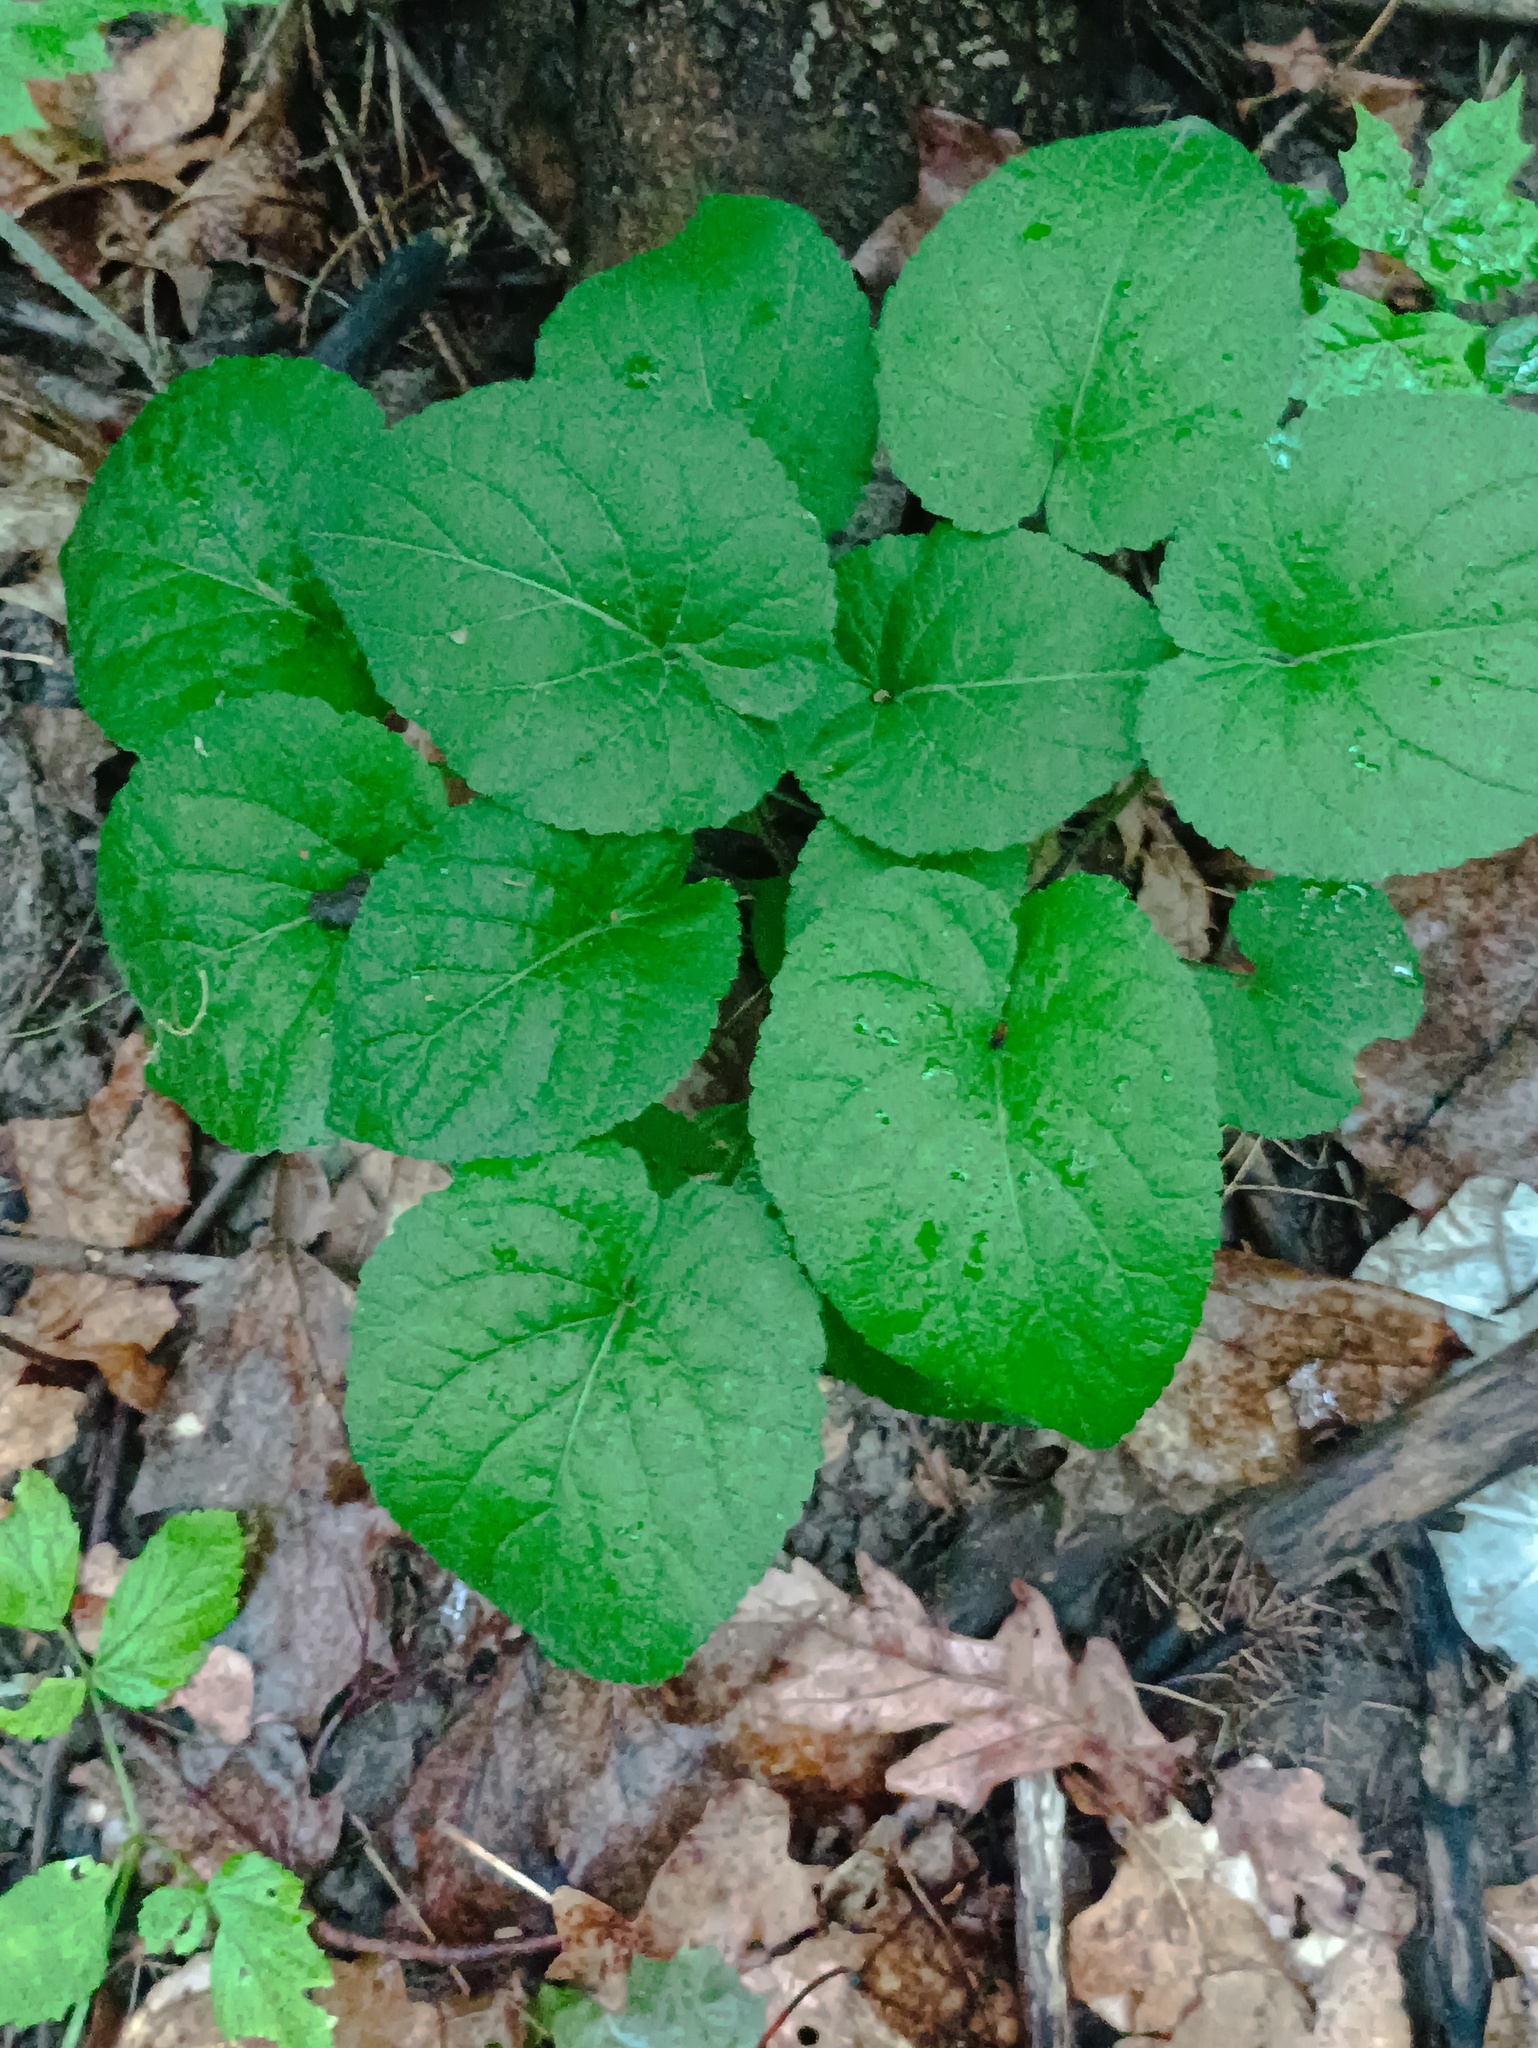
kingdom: Plantae
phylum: Tracheophyta
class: Magnoliopsida
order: Malpighiales
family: Violaceae
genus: Viola
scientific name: Viola collina
